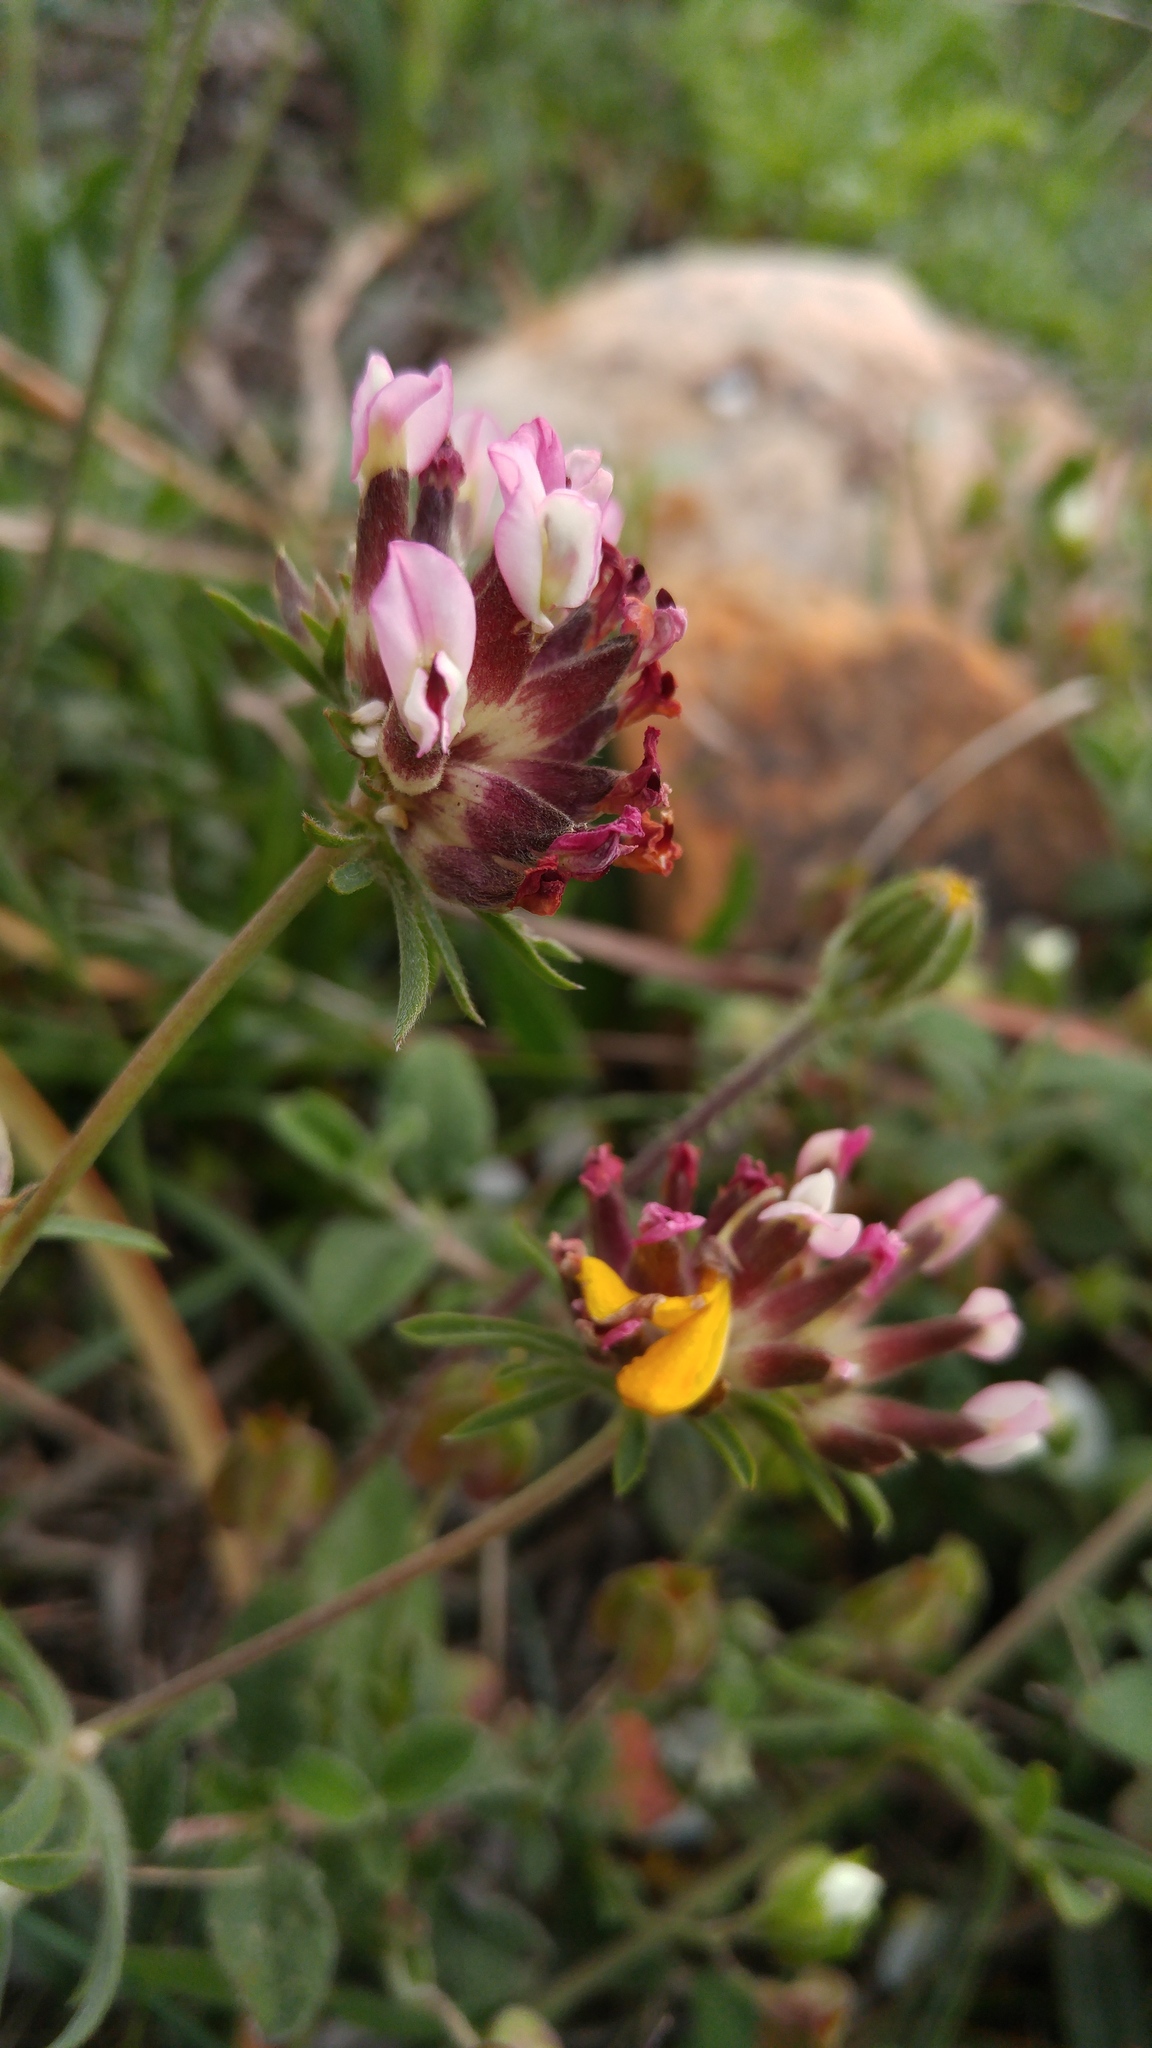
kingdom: Plantae
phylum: Tracheophyta
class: Magnoliopsida
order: Fabales
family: Fabaceae
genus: Anthyllis
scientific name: Anthyllis vulneraria
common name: Kidney vetch
